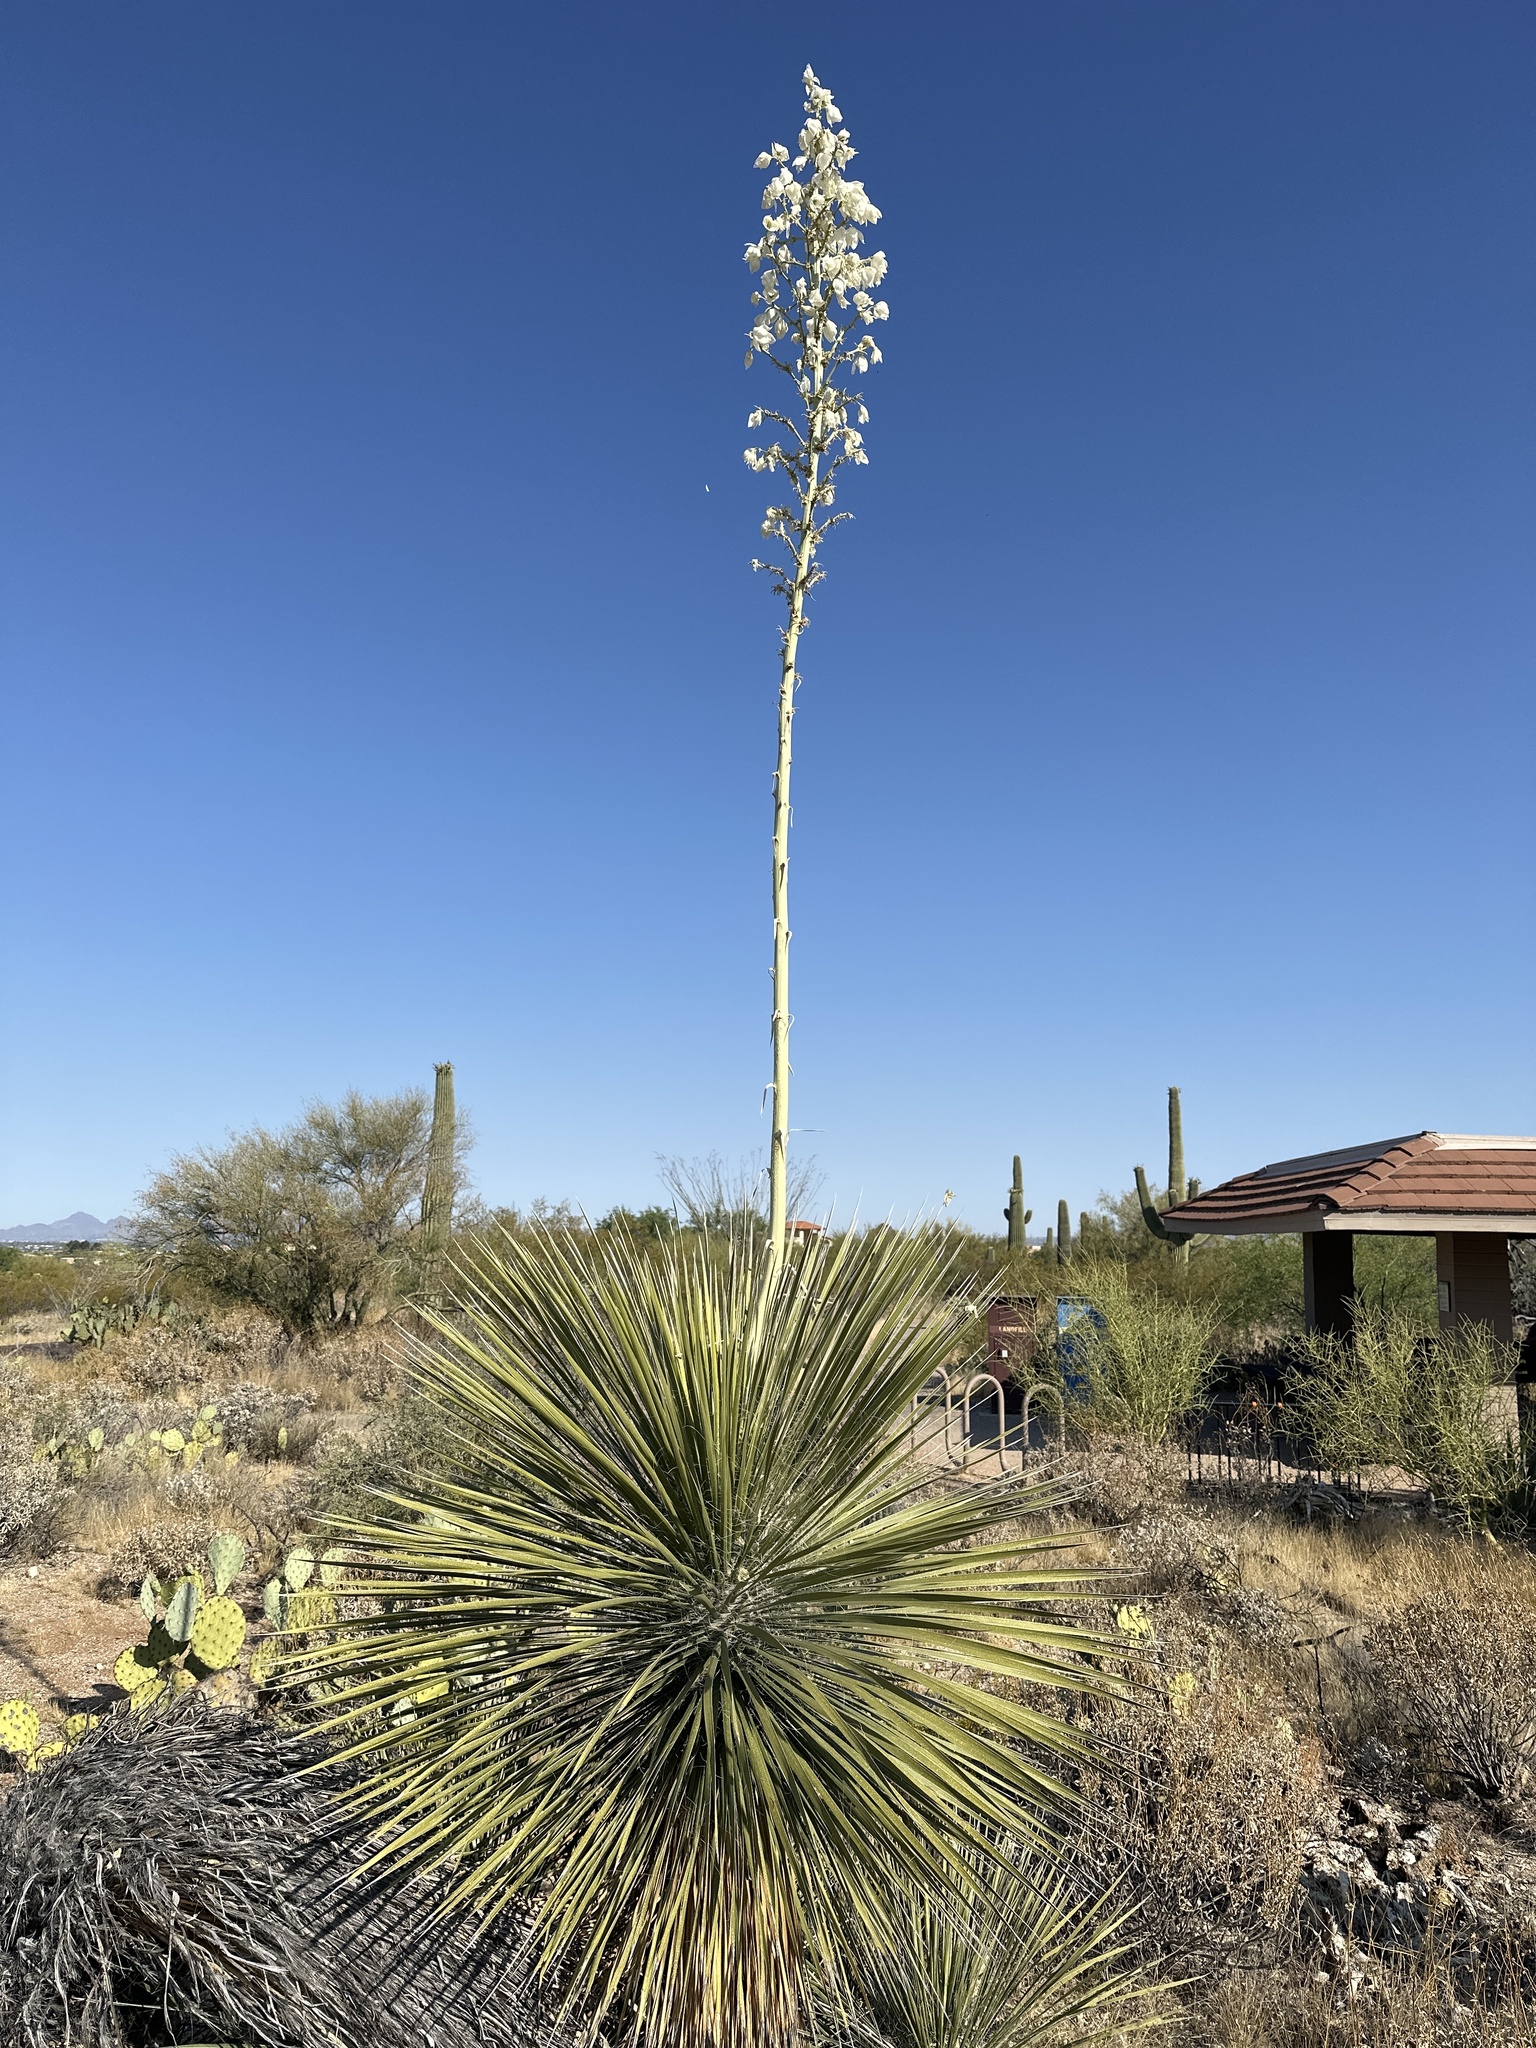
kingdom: Plantae
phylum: Tracheophyta
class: Liliopsida
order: Asparagales
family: Asparagaceae
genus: Yucca
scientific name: Yucca elata
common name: Palmella
